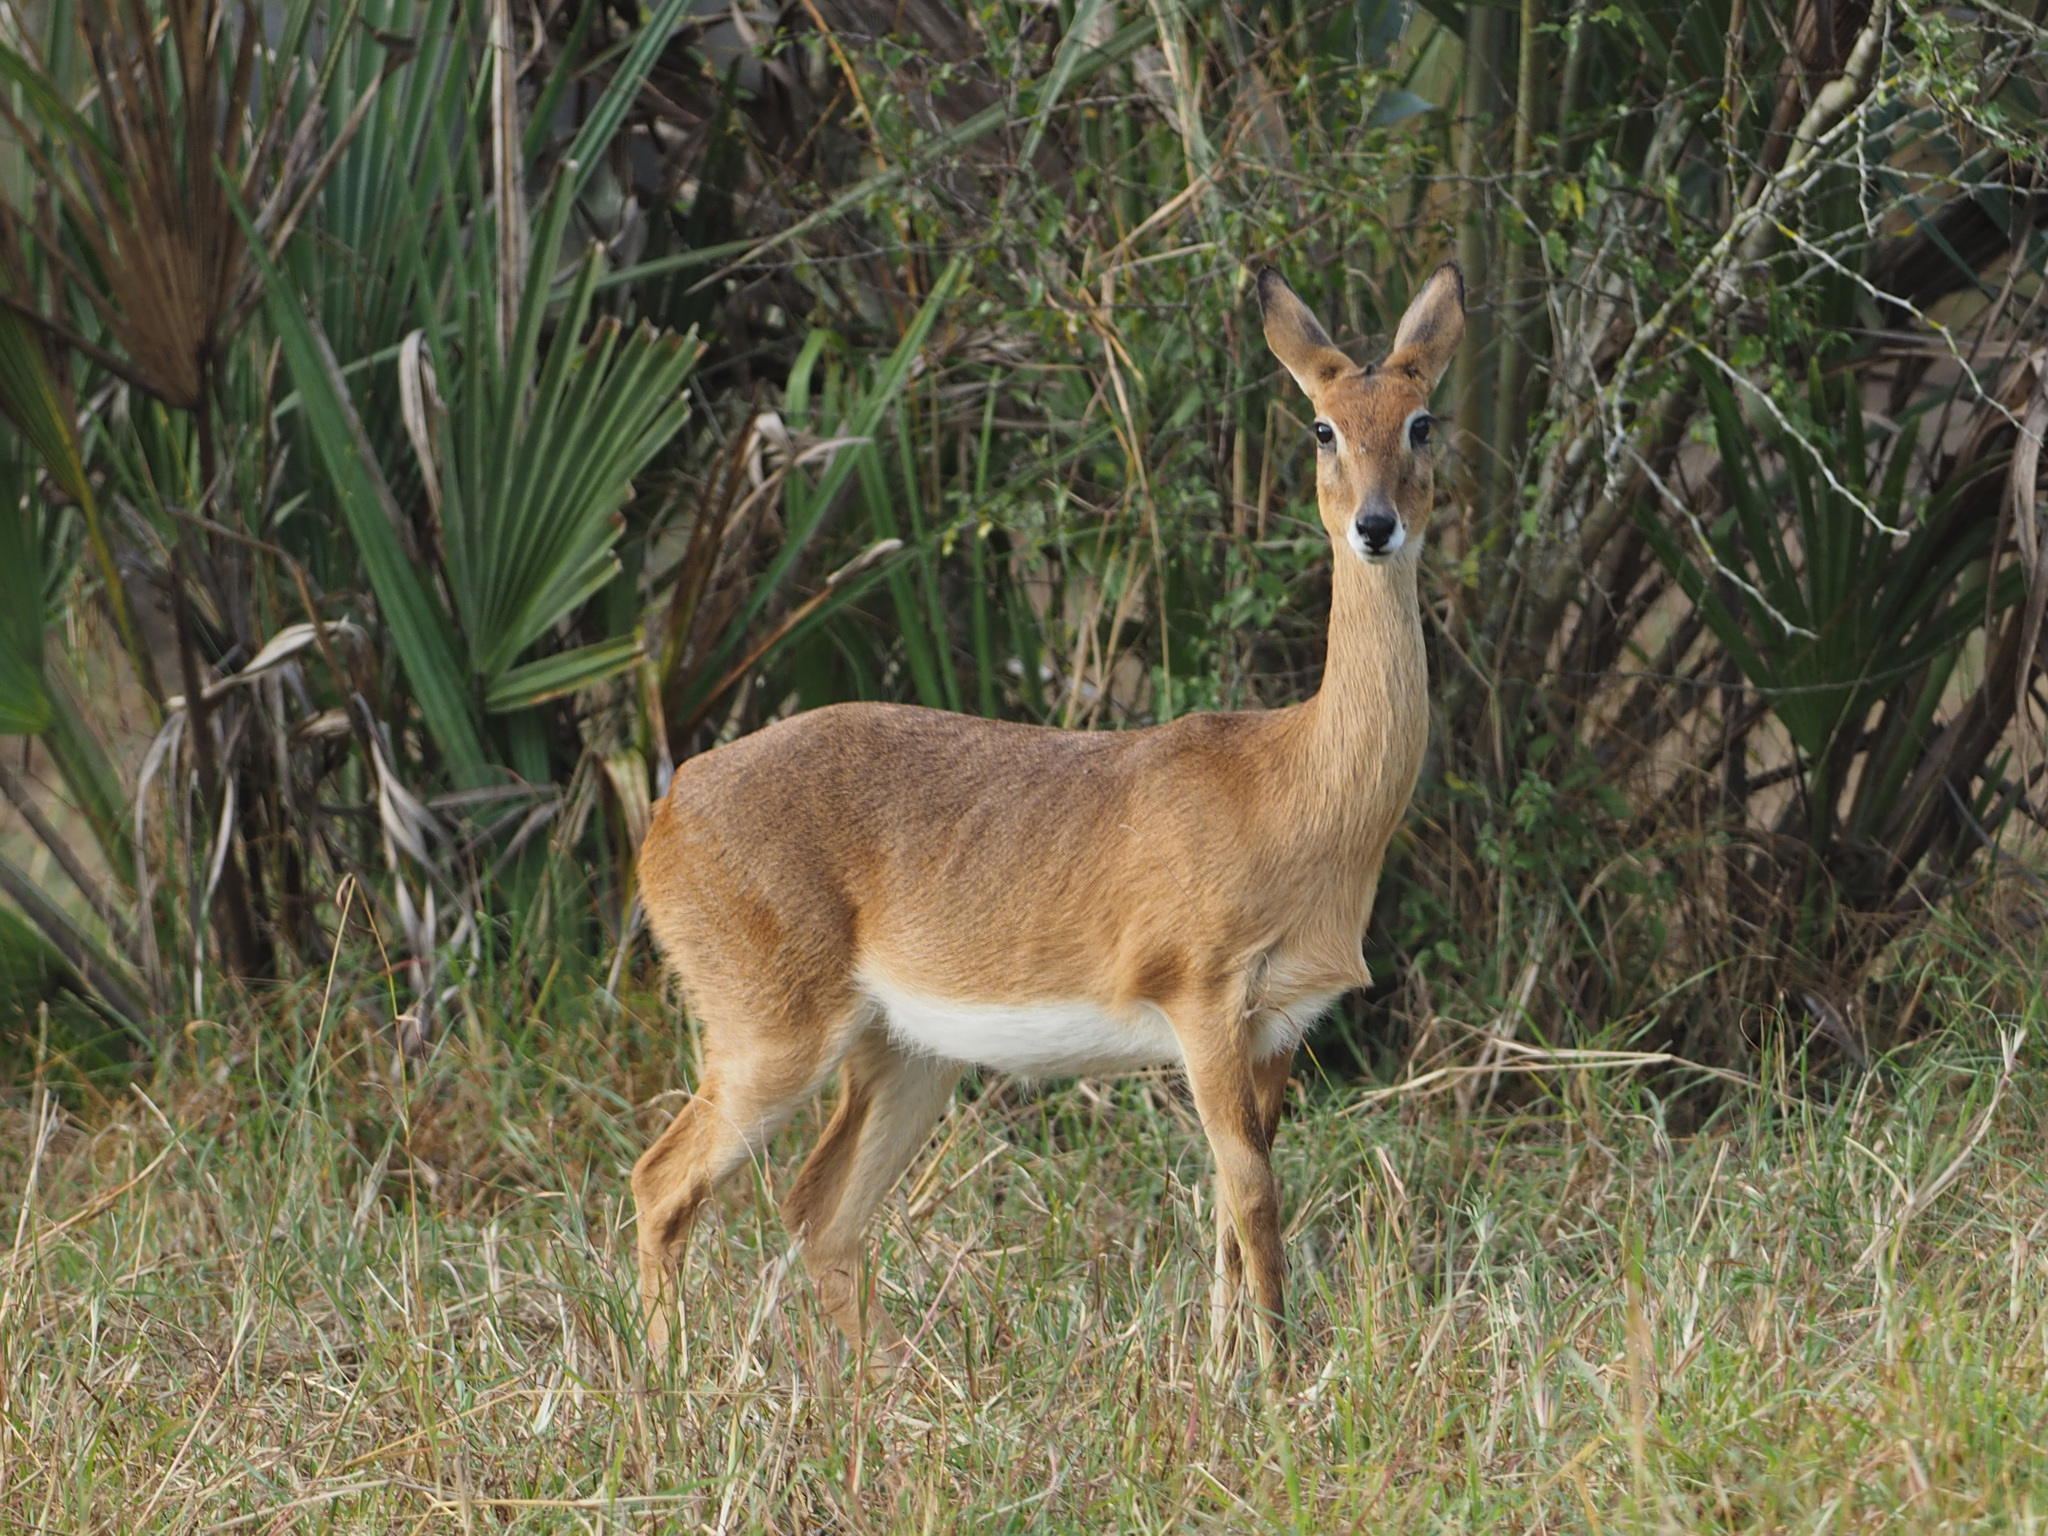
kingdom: Animalia
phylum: Chordata
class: Mammalia
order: Artiodactyla
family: Bovidae
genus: Ourebia
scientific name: Ourebia ourebi
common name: Oribi
